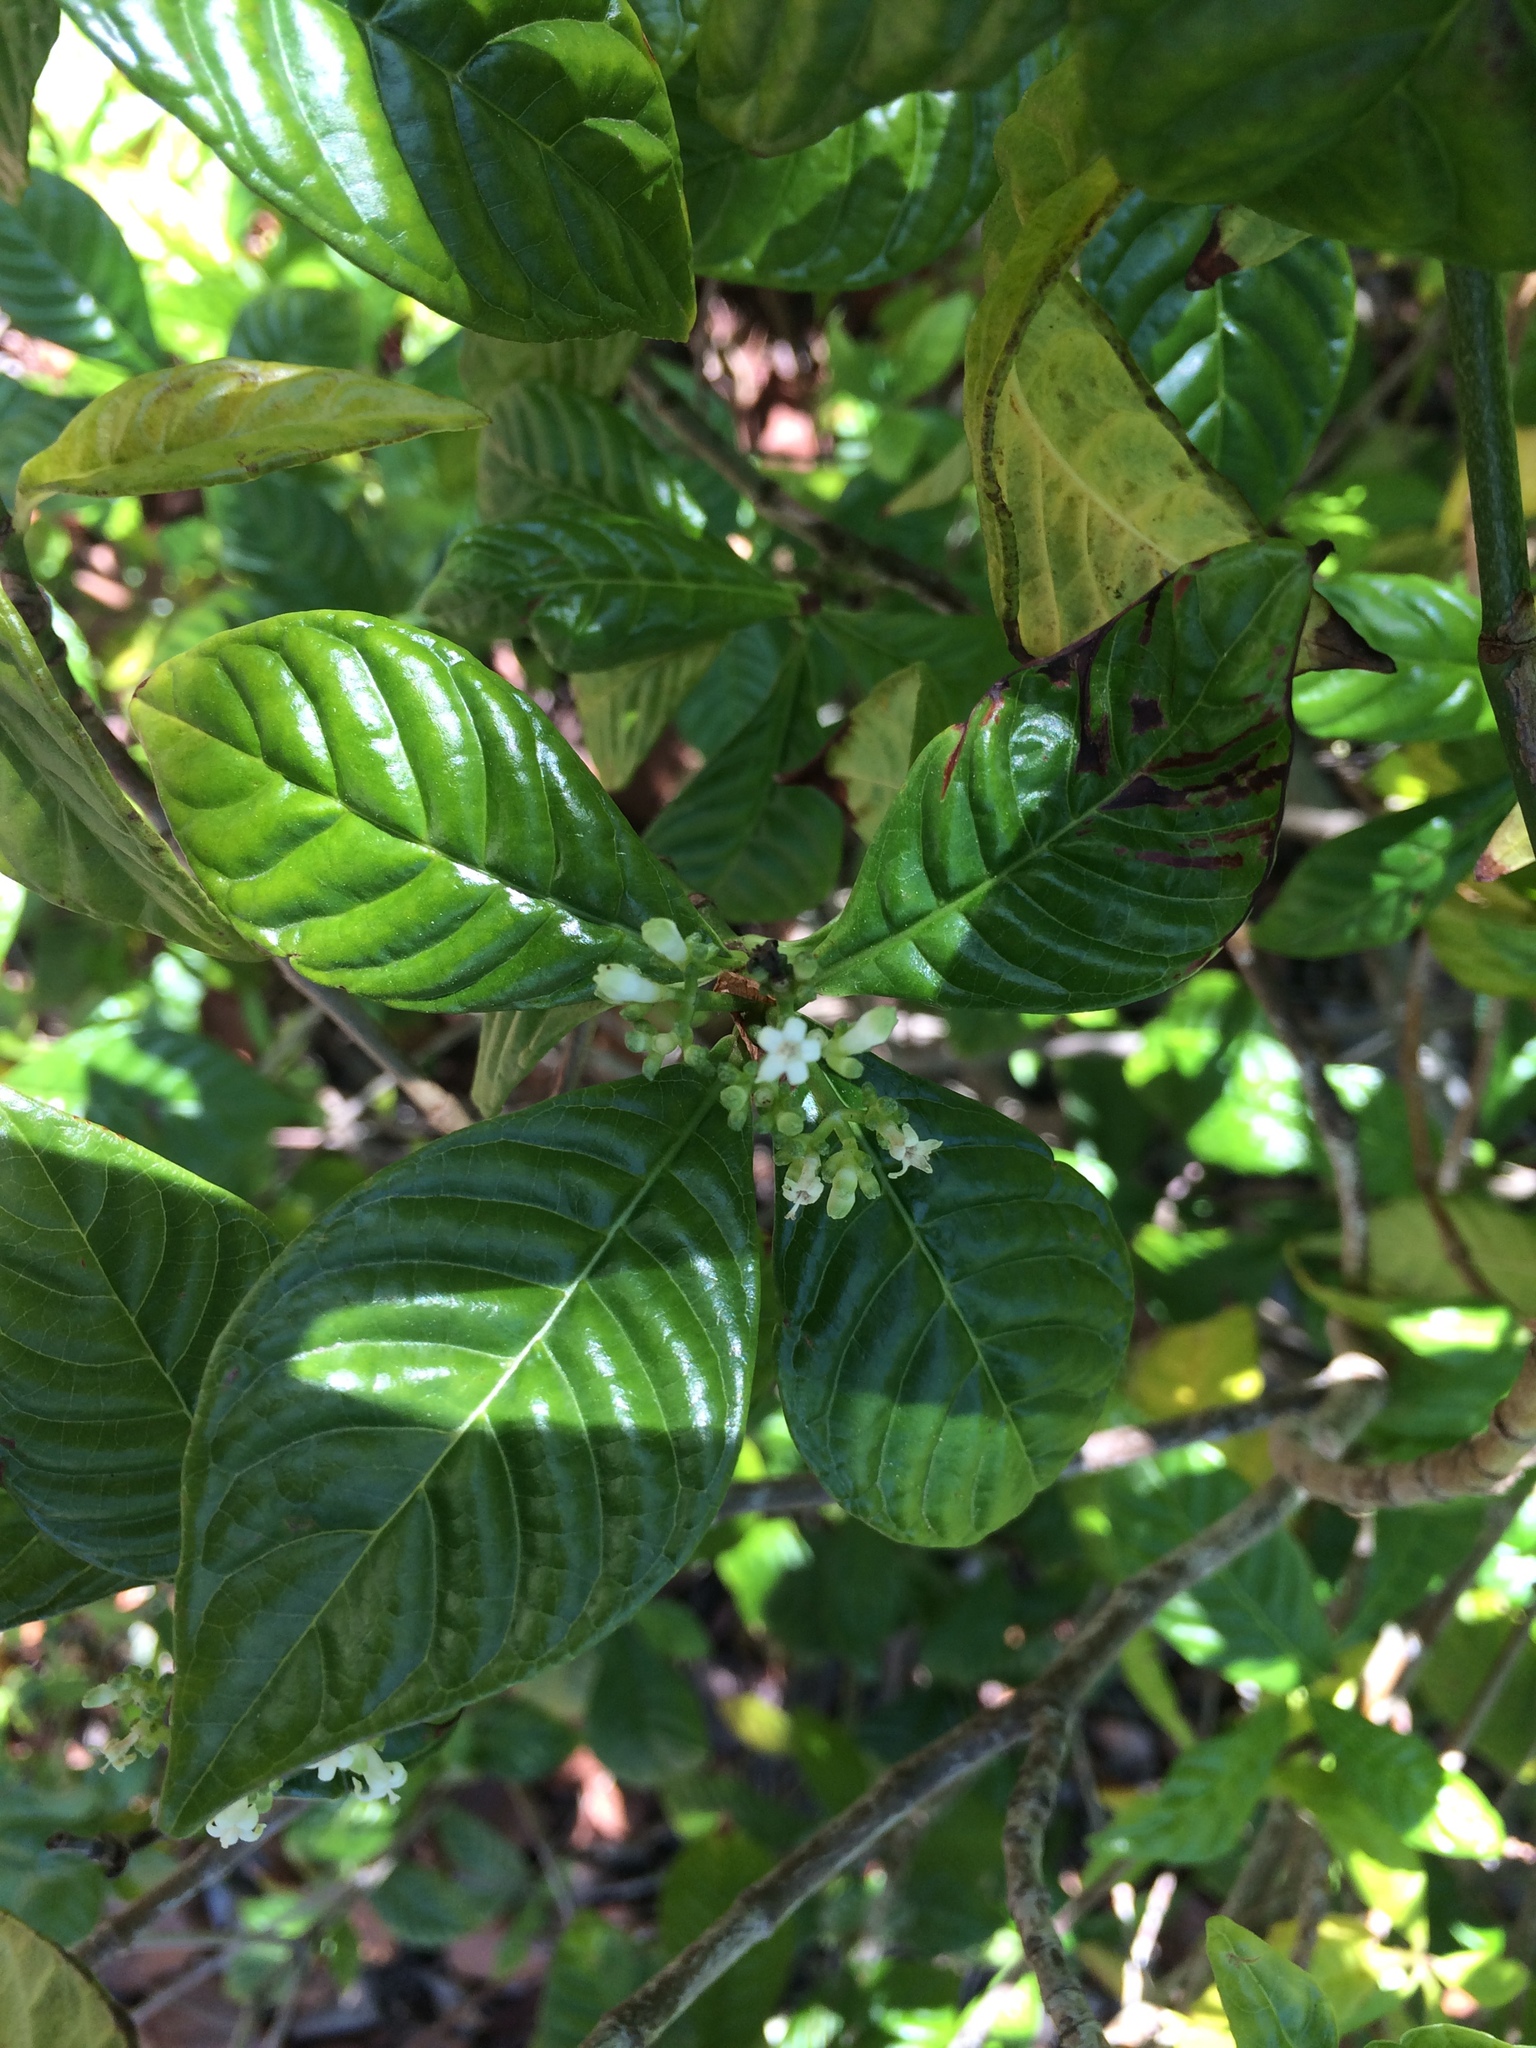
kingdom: Plantae
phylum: Tracheophyta
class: Magnoliopsida
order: Gentianales
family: Rubiaceae
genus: Psychotria
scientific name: Psychotria nervosa
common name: Bastard cankerberry
